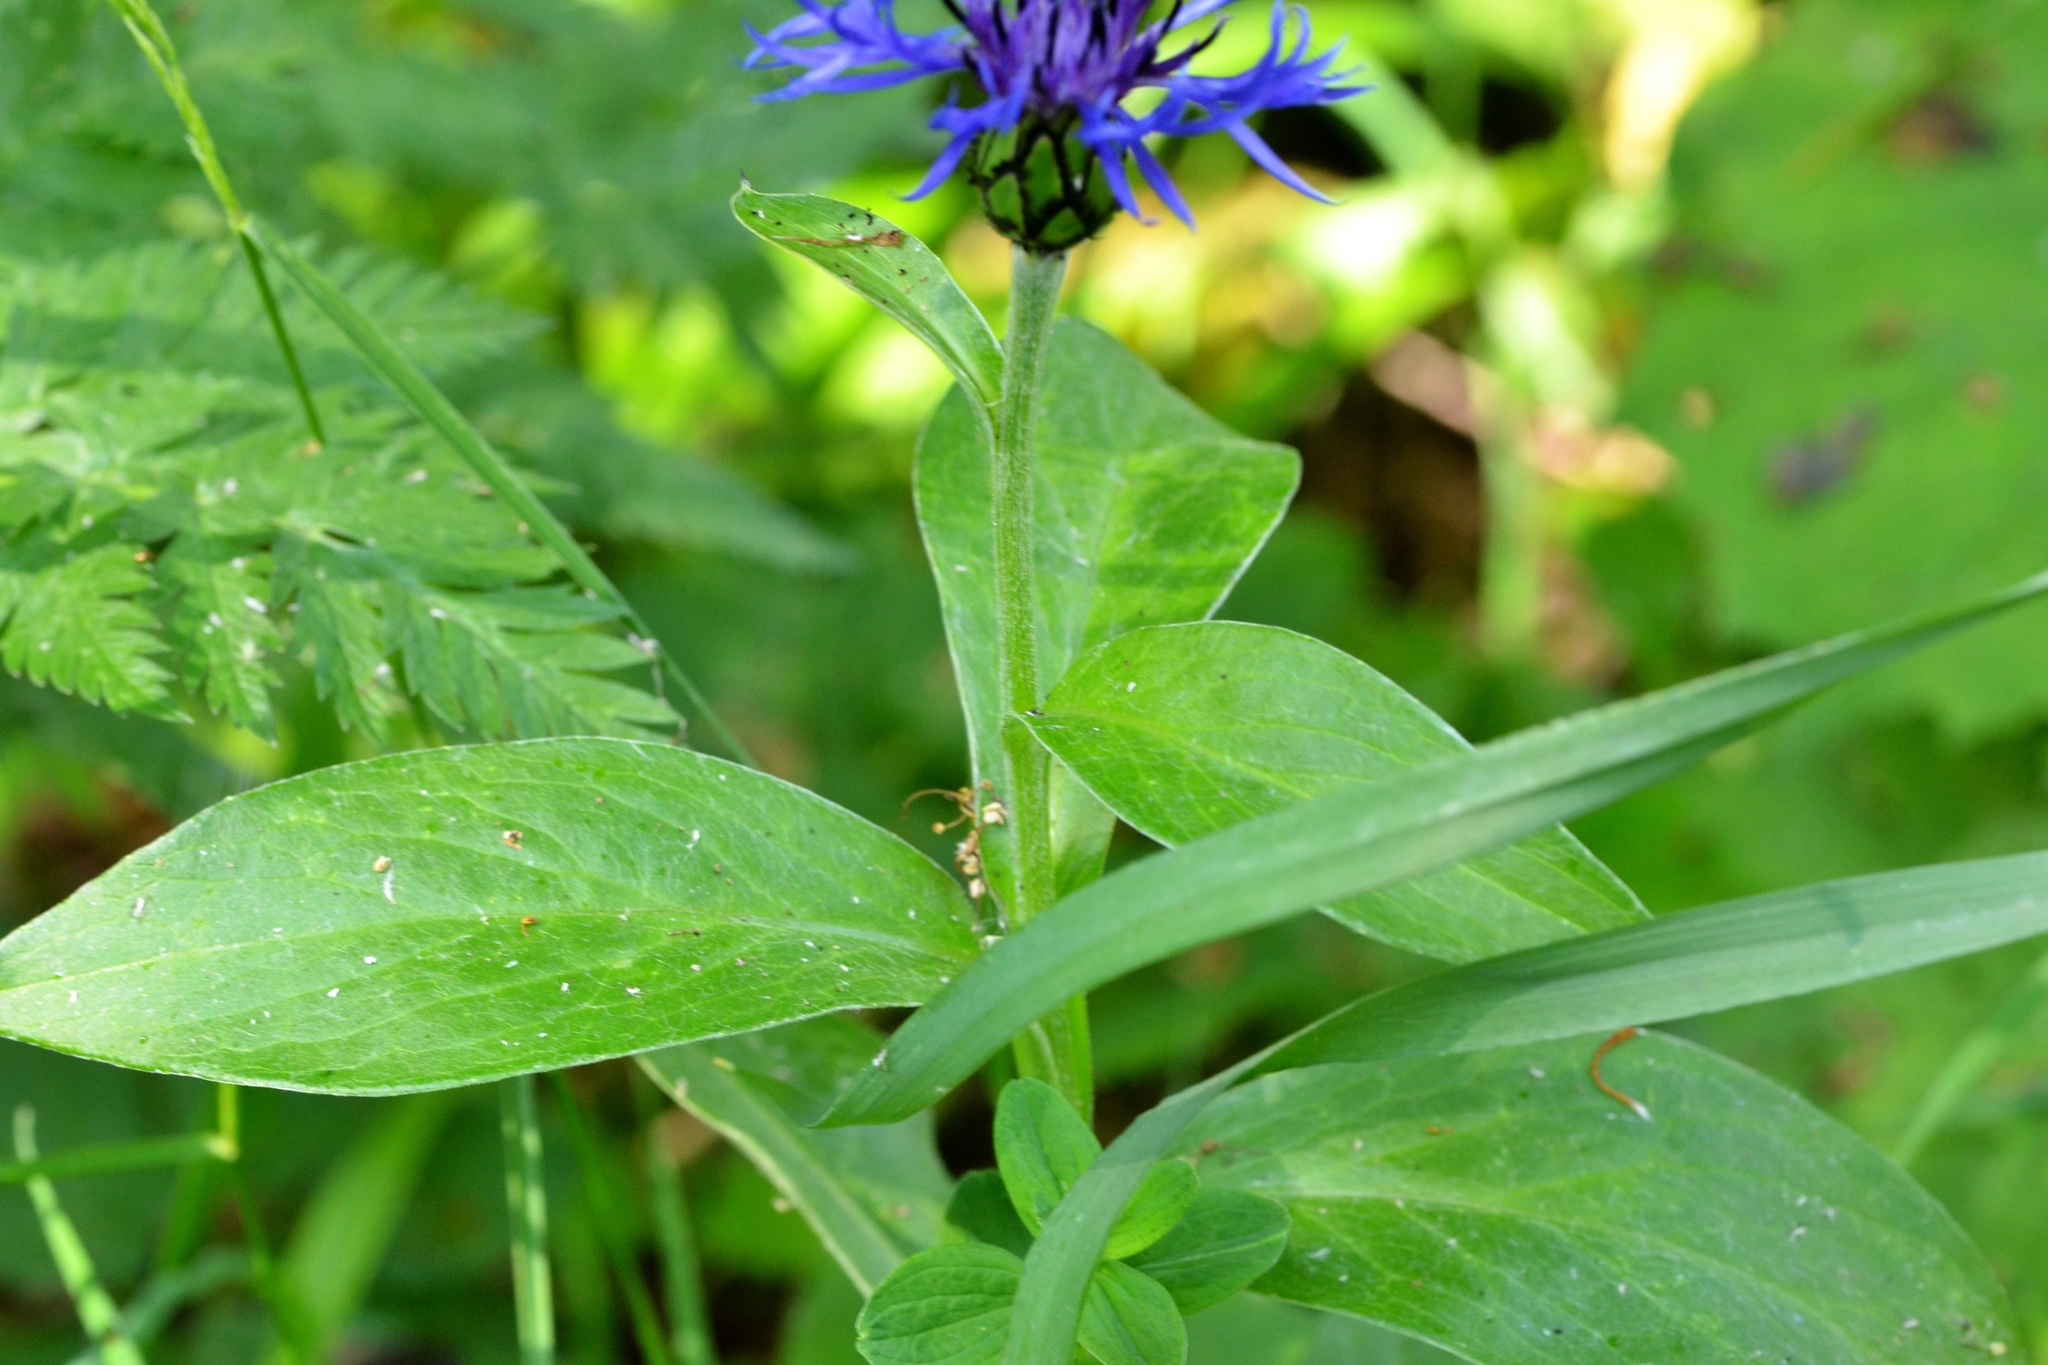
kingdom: Plantae
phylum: Tracheophyta
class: Magnoliopsida
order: Asterales
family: Asteraceae
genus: Centaurea
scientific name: Centaurea montana
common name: Perennial cornflower
